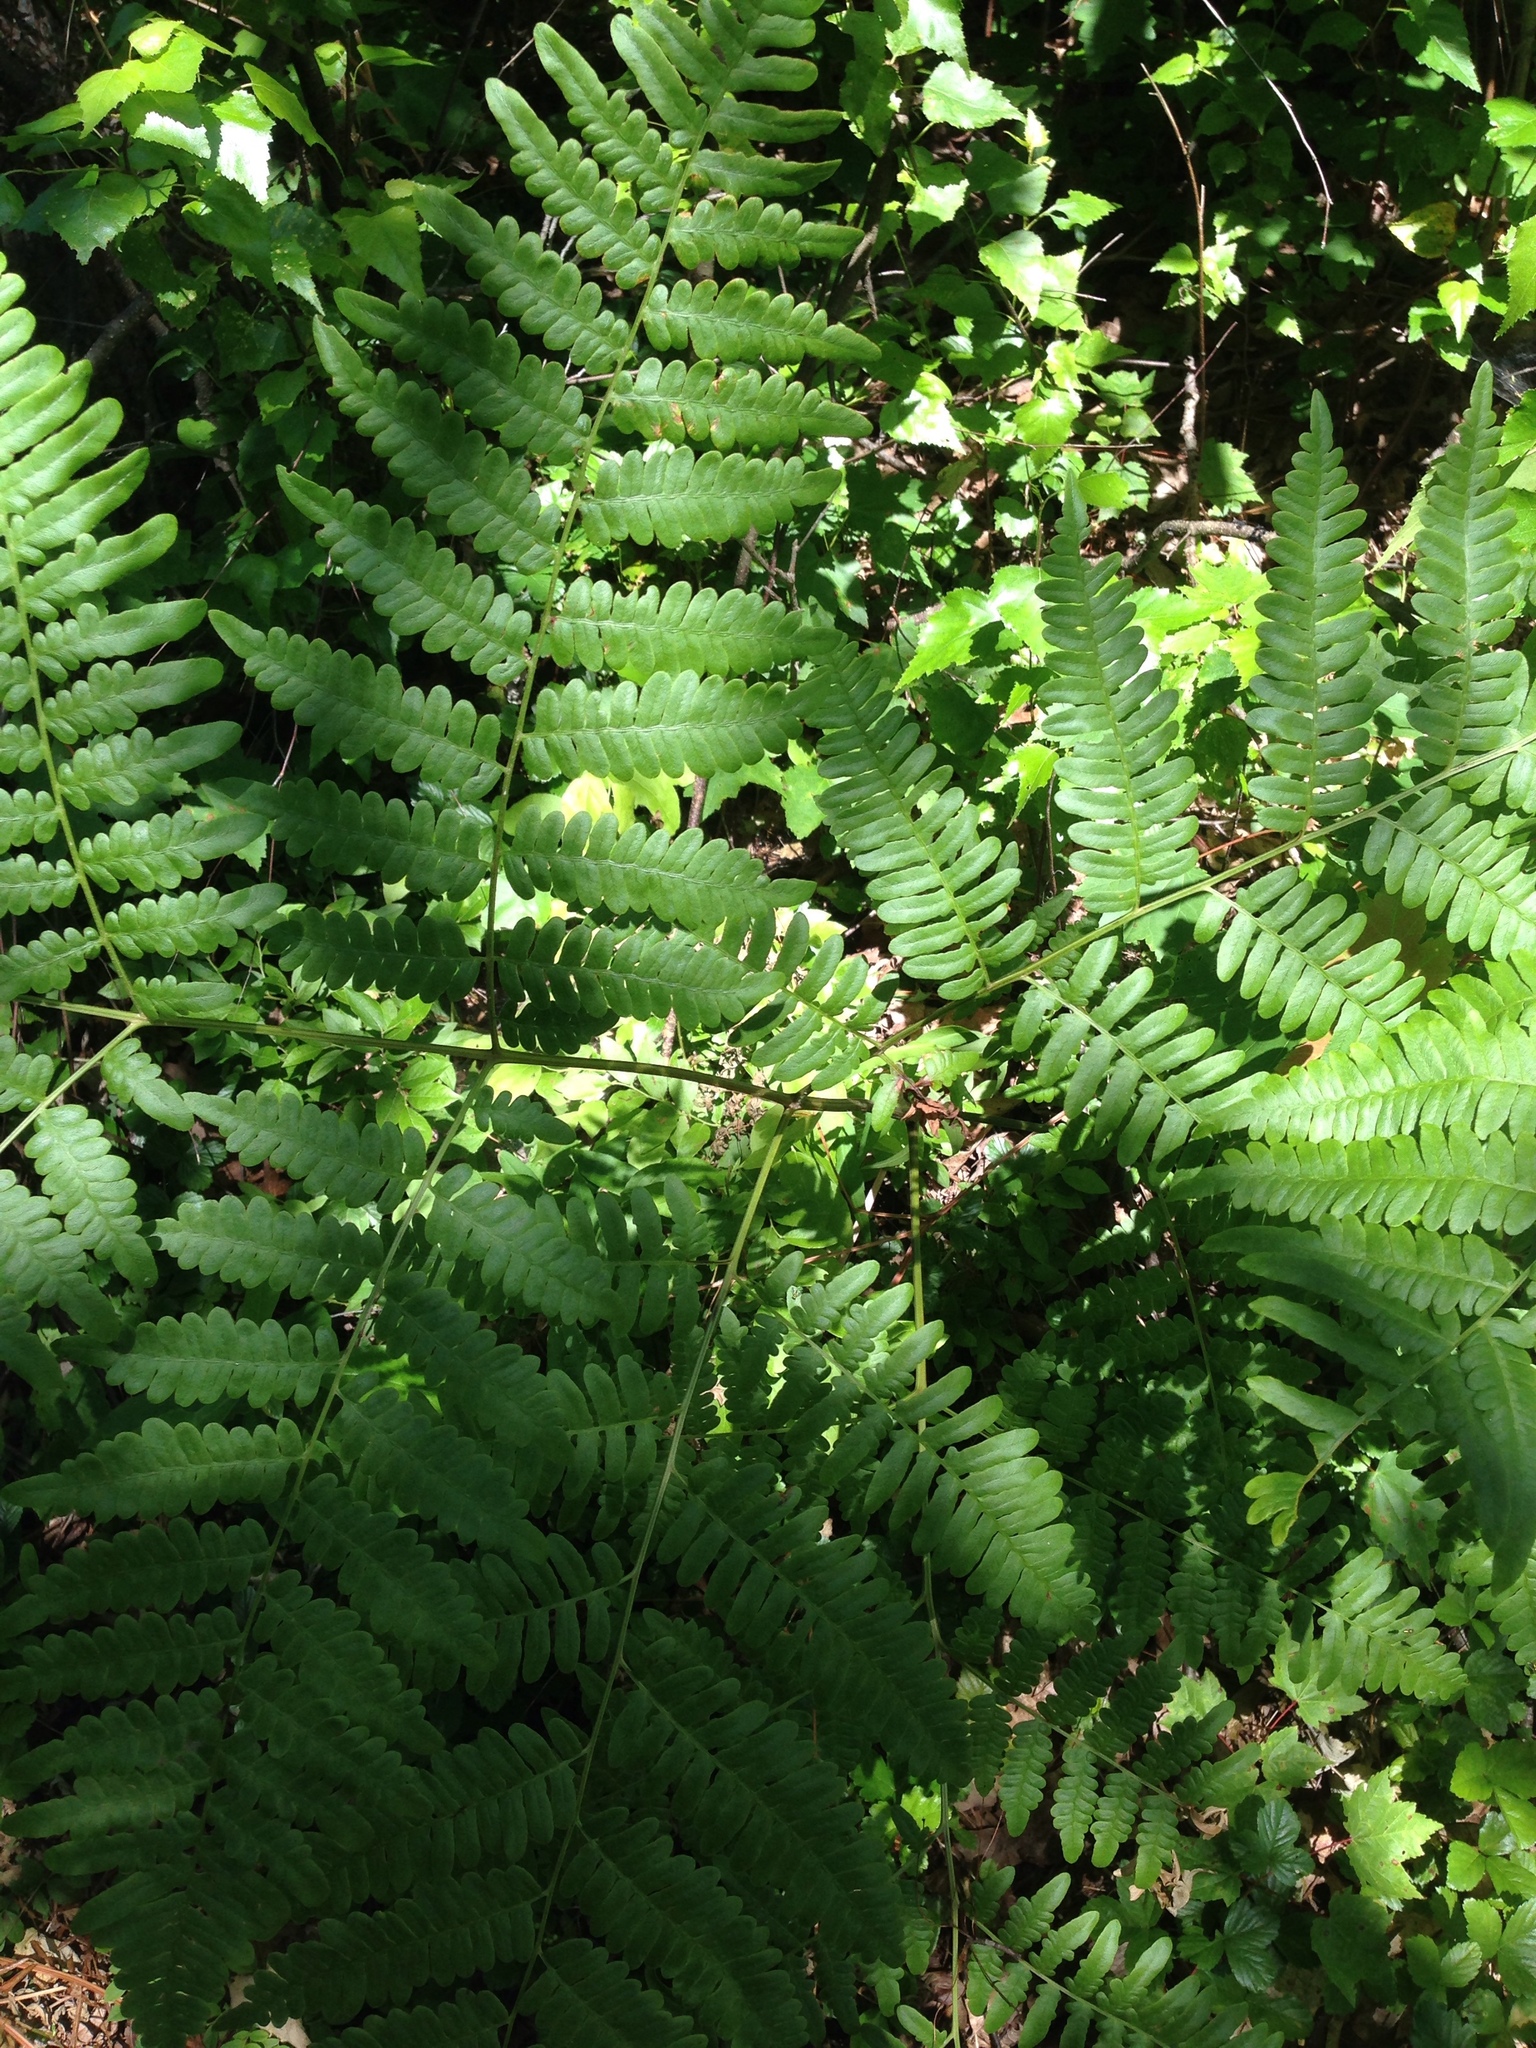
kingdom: Plantae
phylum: Tracheophyta
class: Polypodiopsida
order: Polypodiales
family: Dennstaedtiaceae
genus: Pteridium
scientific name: Pteridium aquilinum
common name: Bracken
